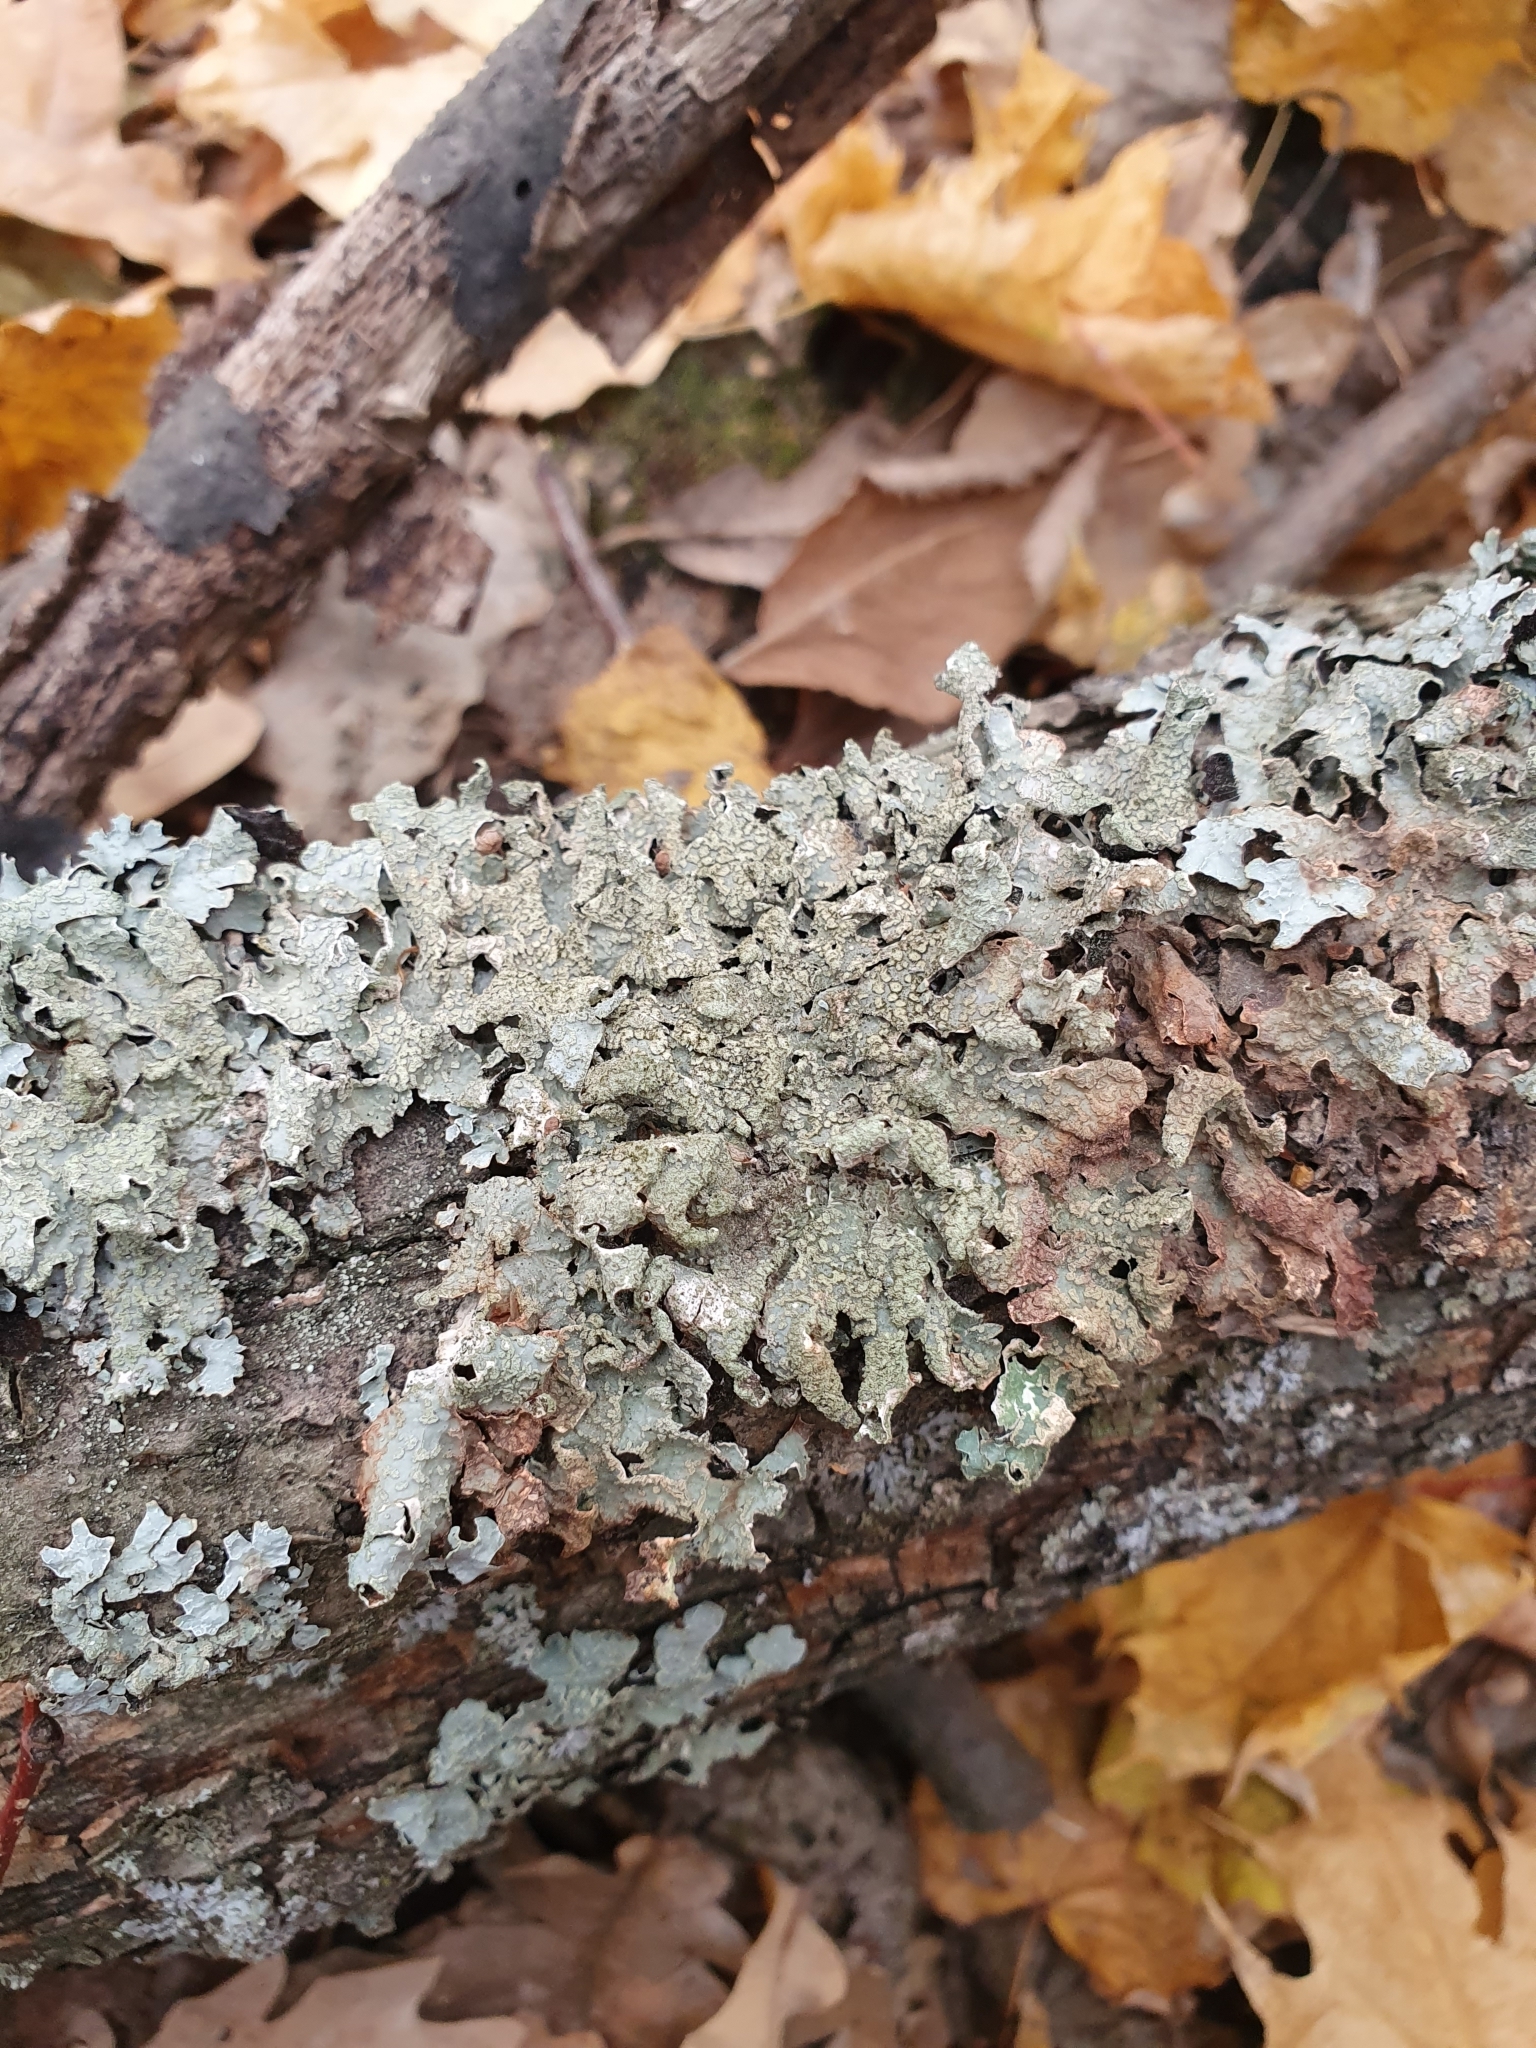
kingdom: Fungi
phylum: Ascomycota
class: Lecanoromycetes
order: Lecanorales
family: Parmeliaceae
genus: Parmelia
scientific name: Parmelia sulcata
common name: Netted shield lichen
